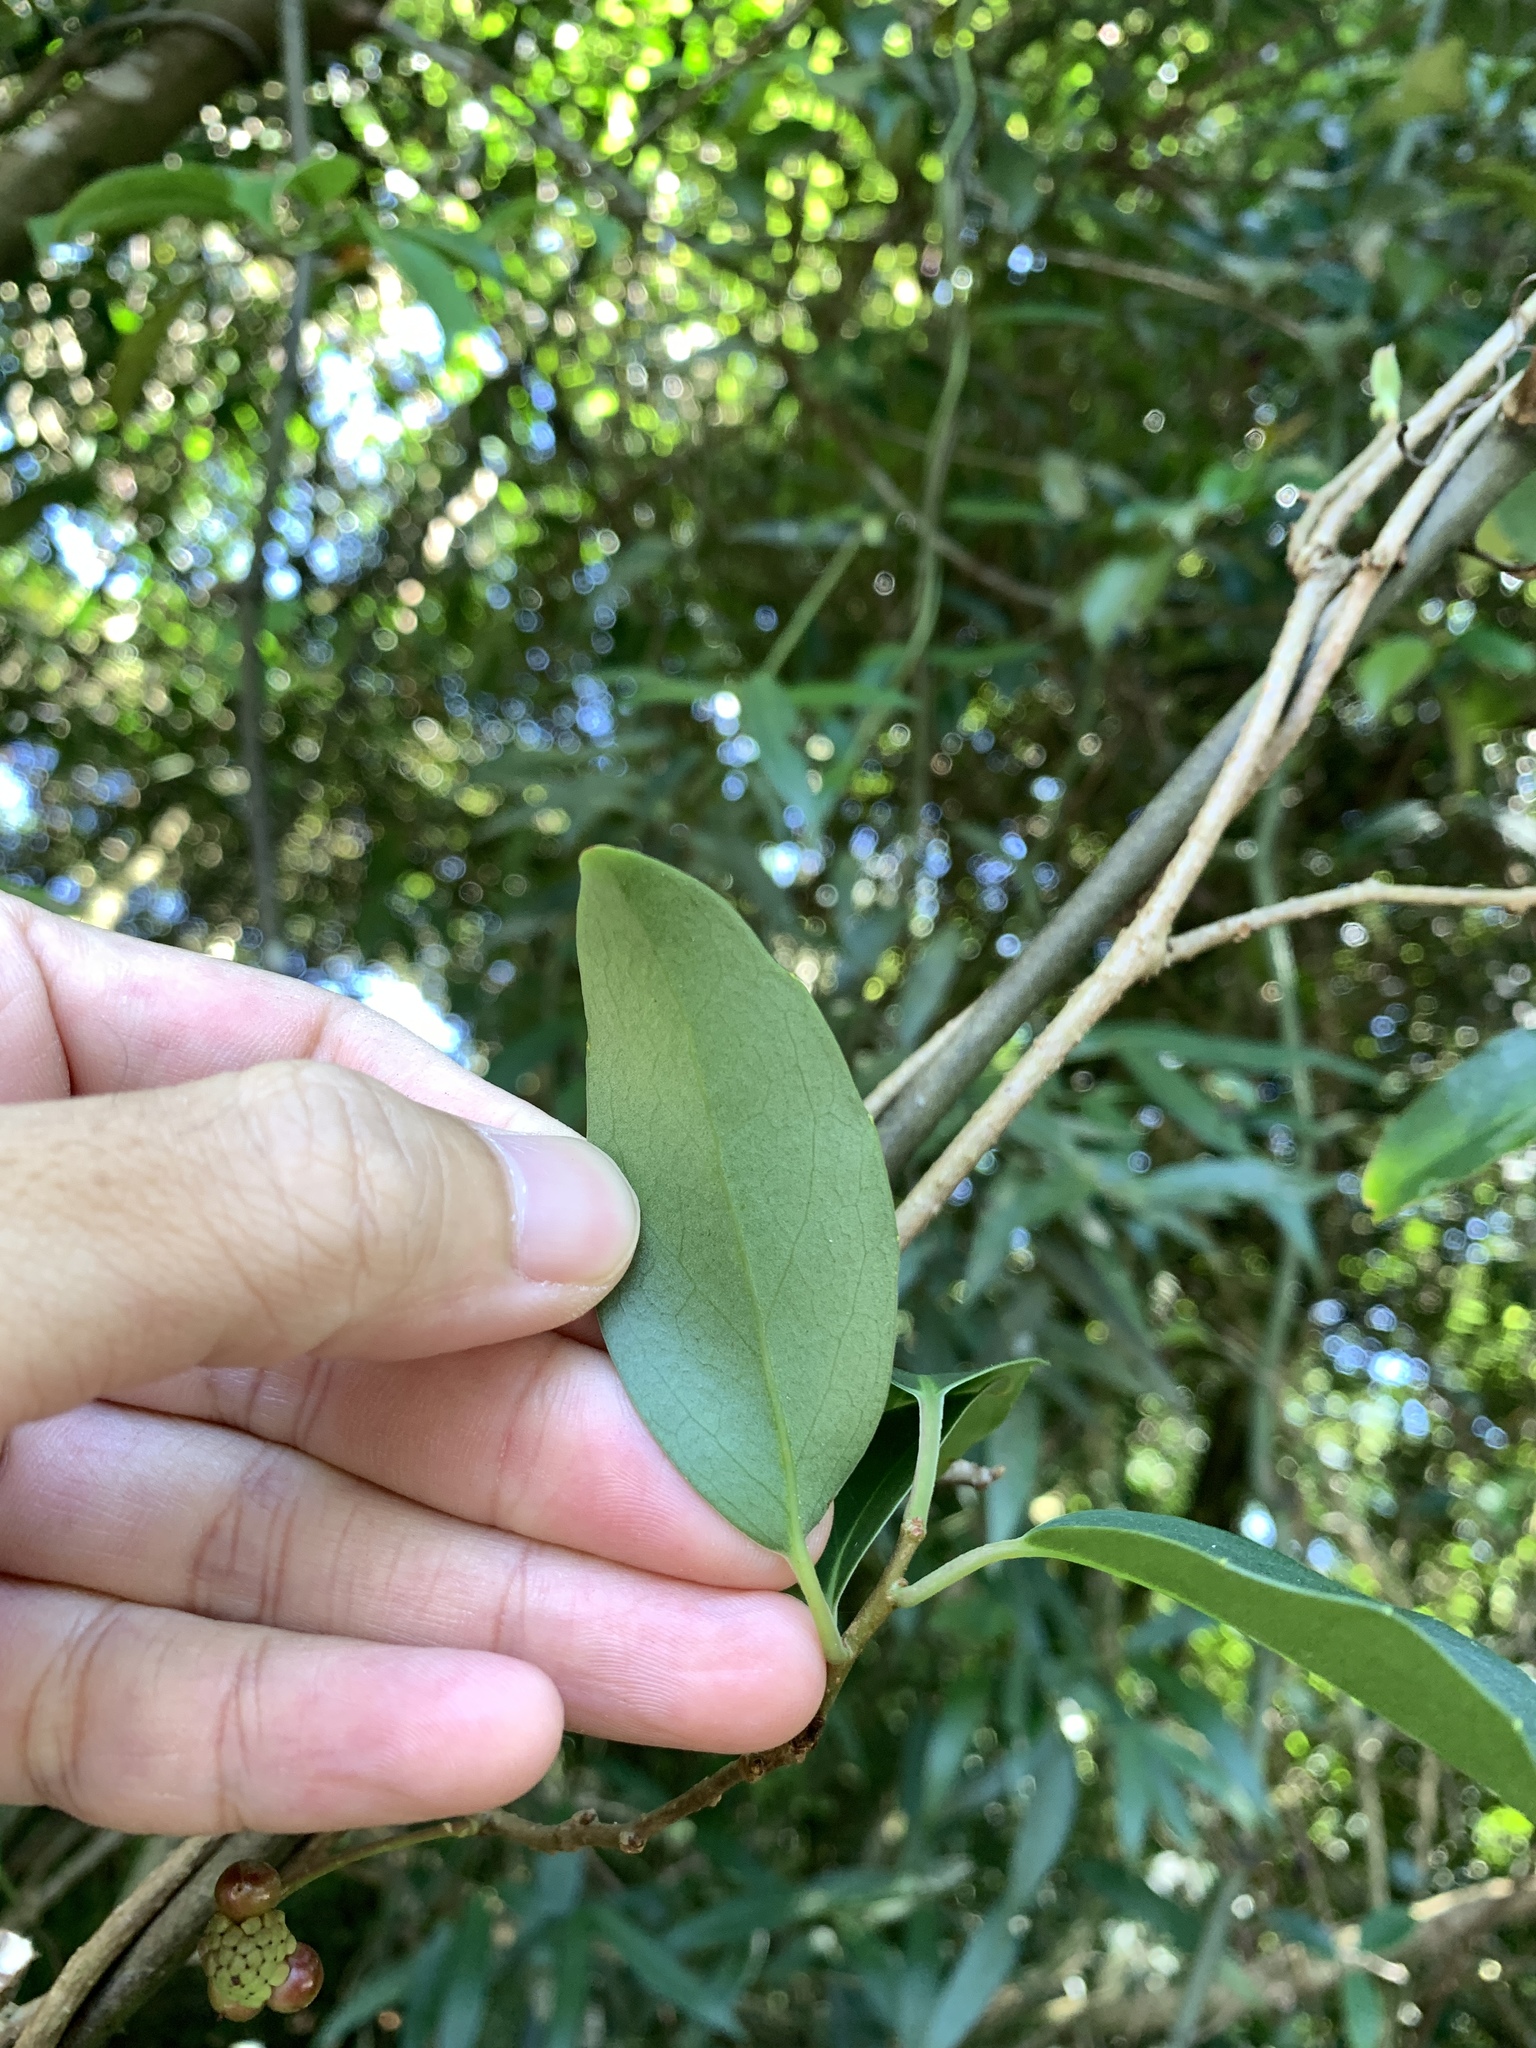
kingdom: Plantae
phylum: Tracheophyta
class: Magnoliopsida
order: Austrobaileyales
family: Schisandraceae
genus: Kadsura
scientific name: Kadsura matsudae
